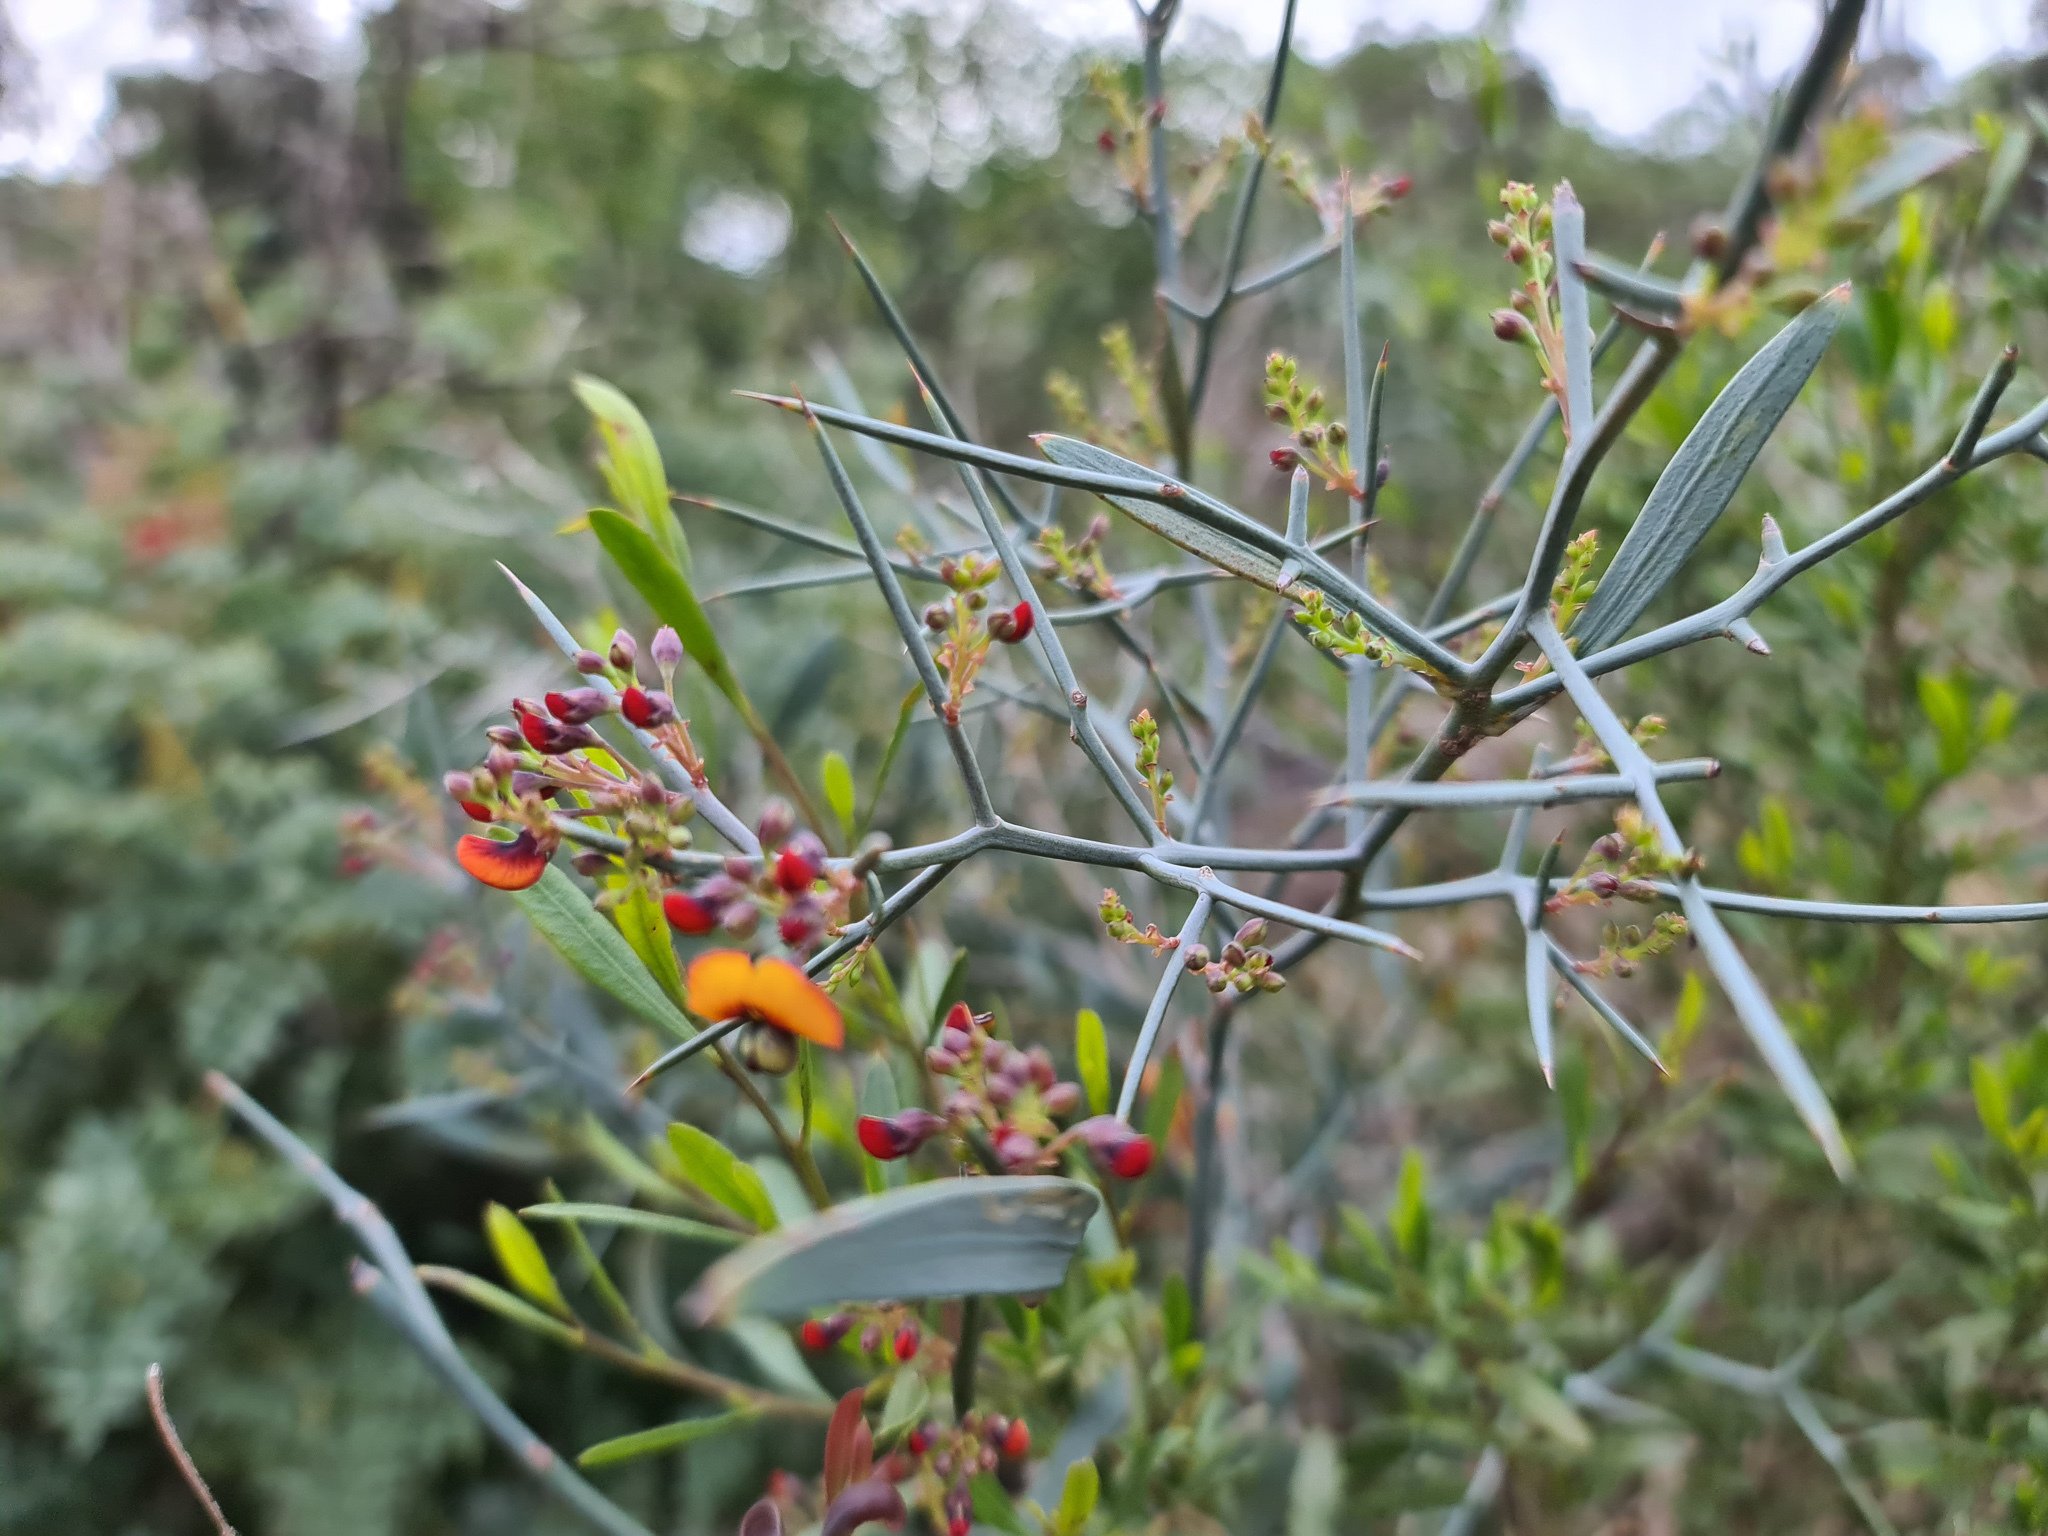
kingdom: Plantae
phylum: Tracheophyta
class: Magnoliopsida
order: Fabales
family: Fabaceae
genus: Daviesia
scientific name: Daviesia horrida
